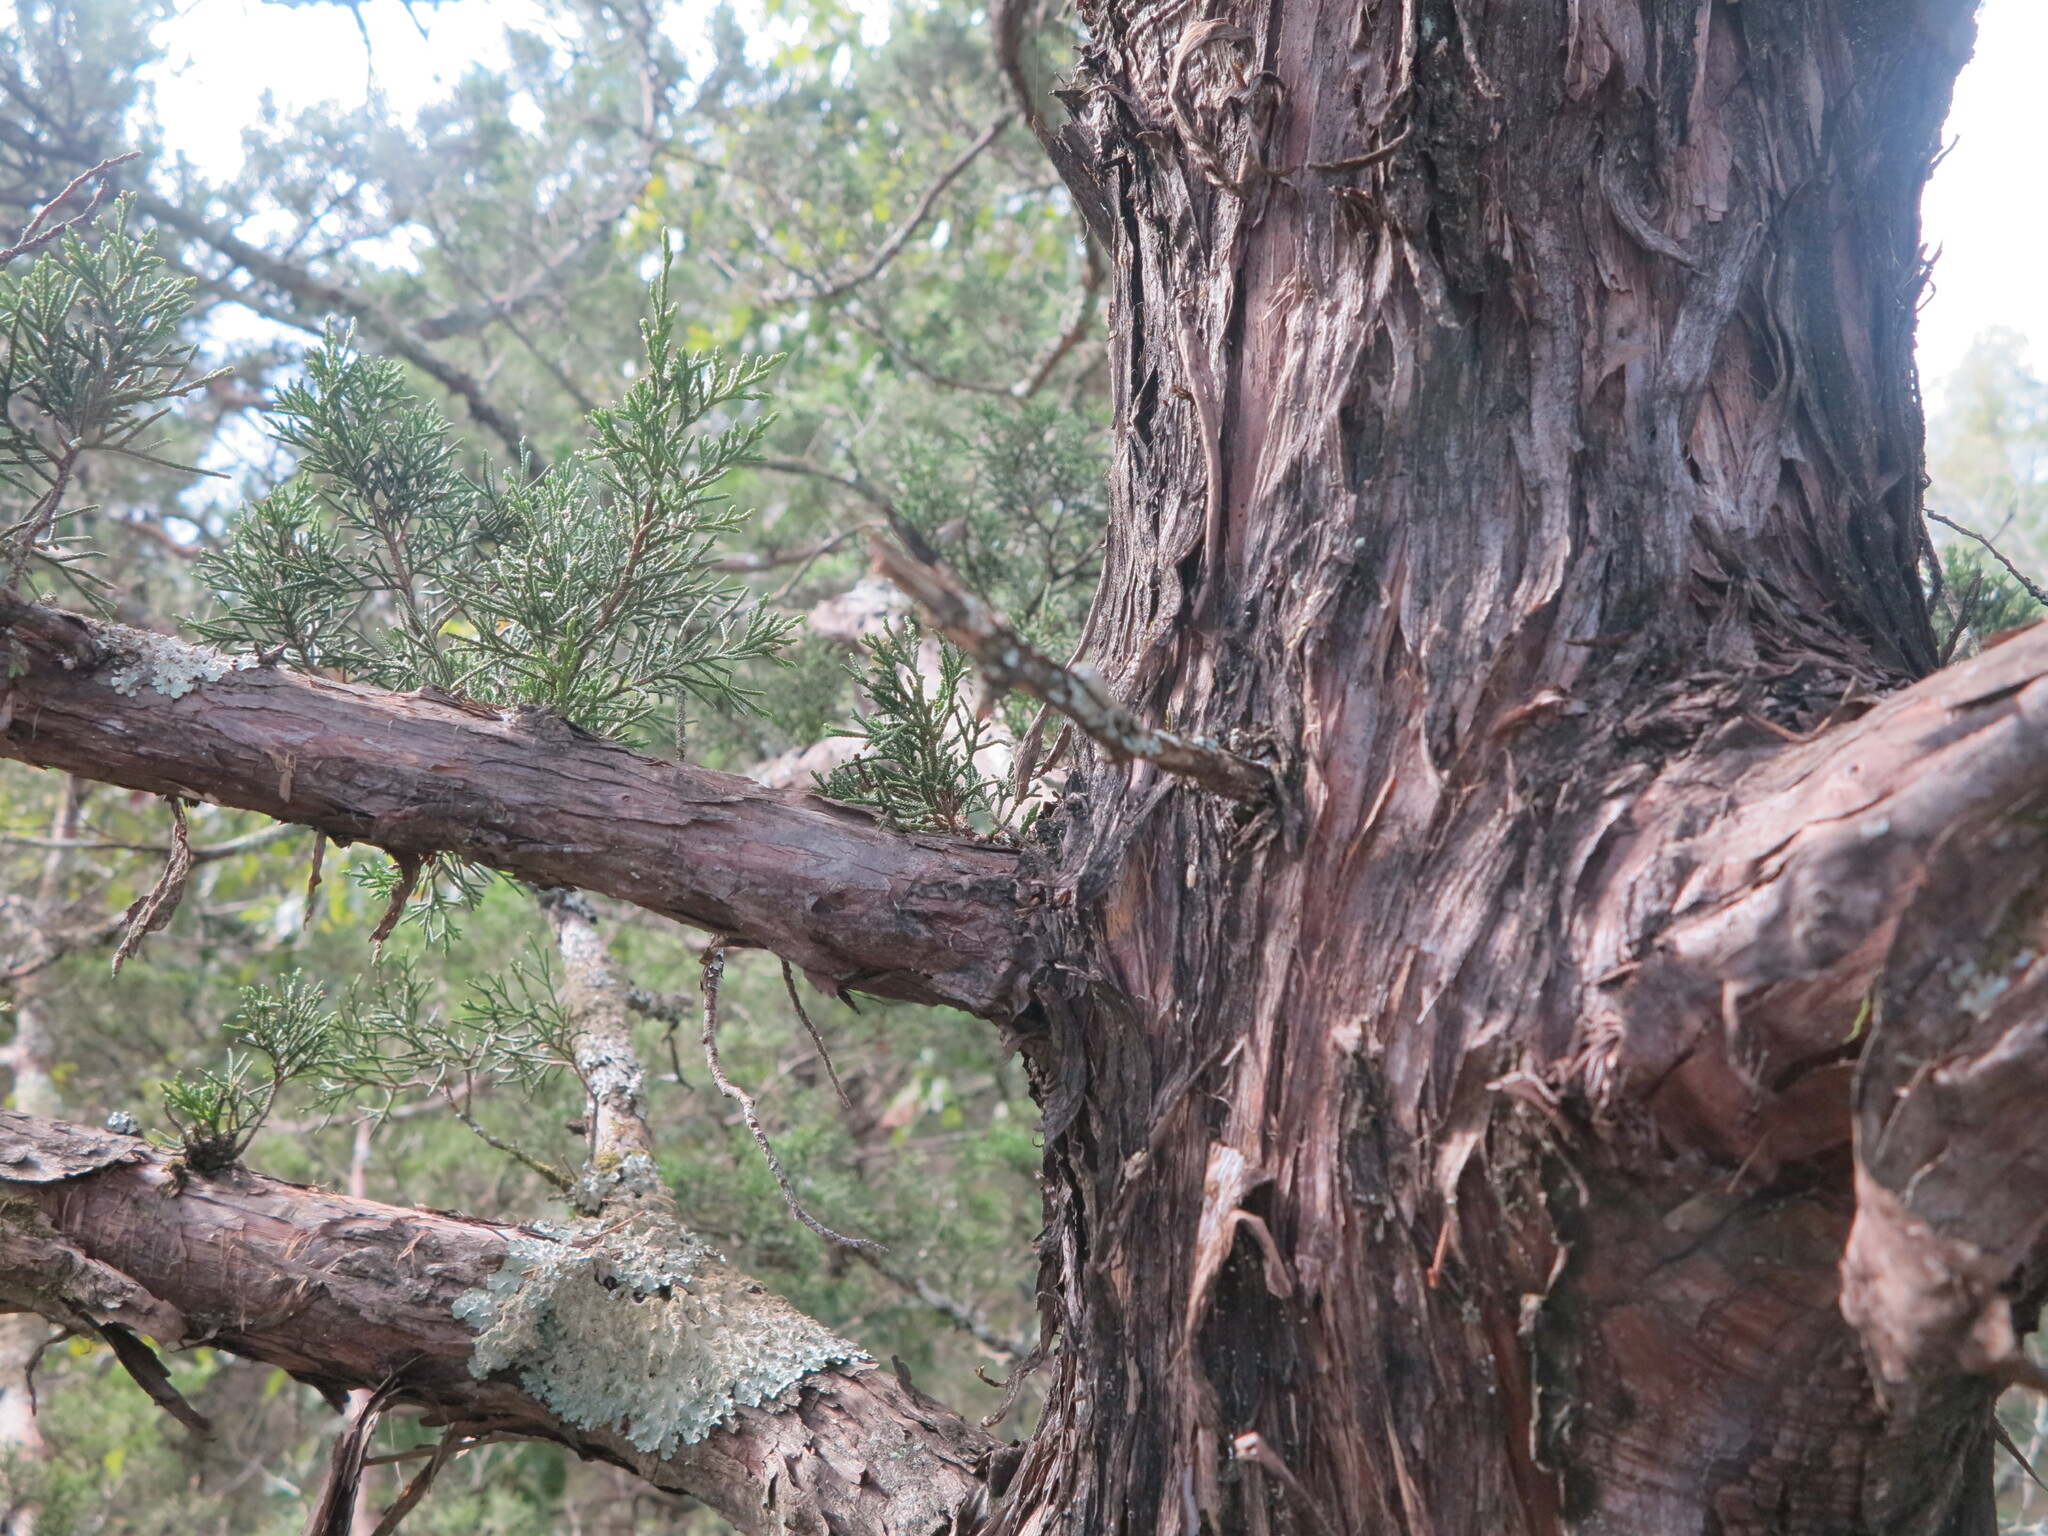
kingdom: Plantae
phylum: Tracheophyta
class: Pinopsida
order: Pinales
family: Cupressaceae
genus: Juniperus
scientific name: Juniperus virginiana
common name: Red juniper
